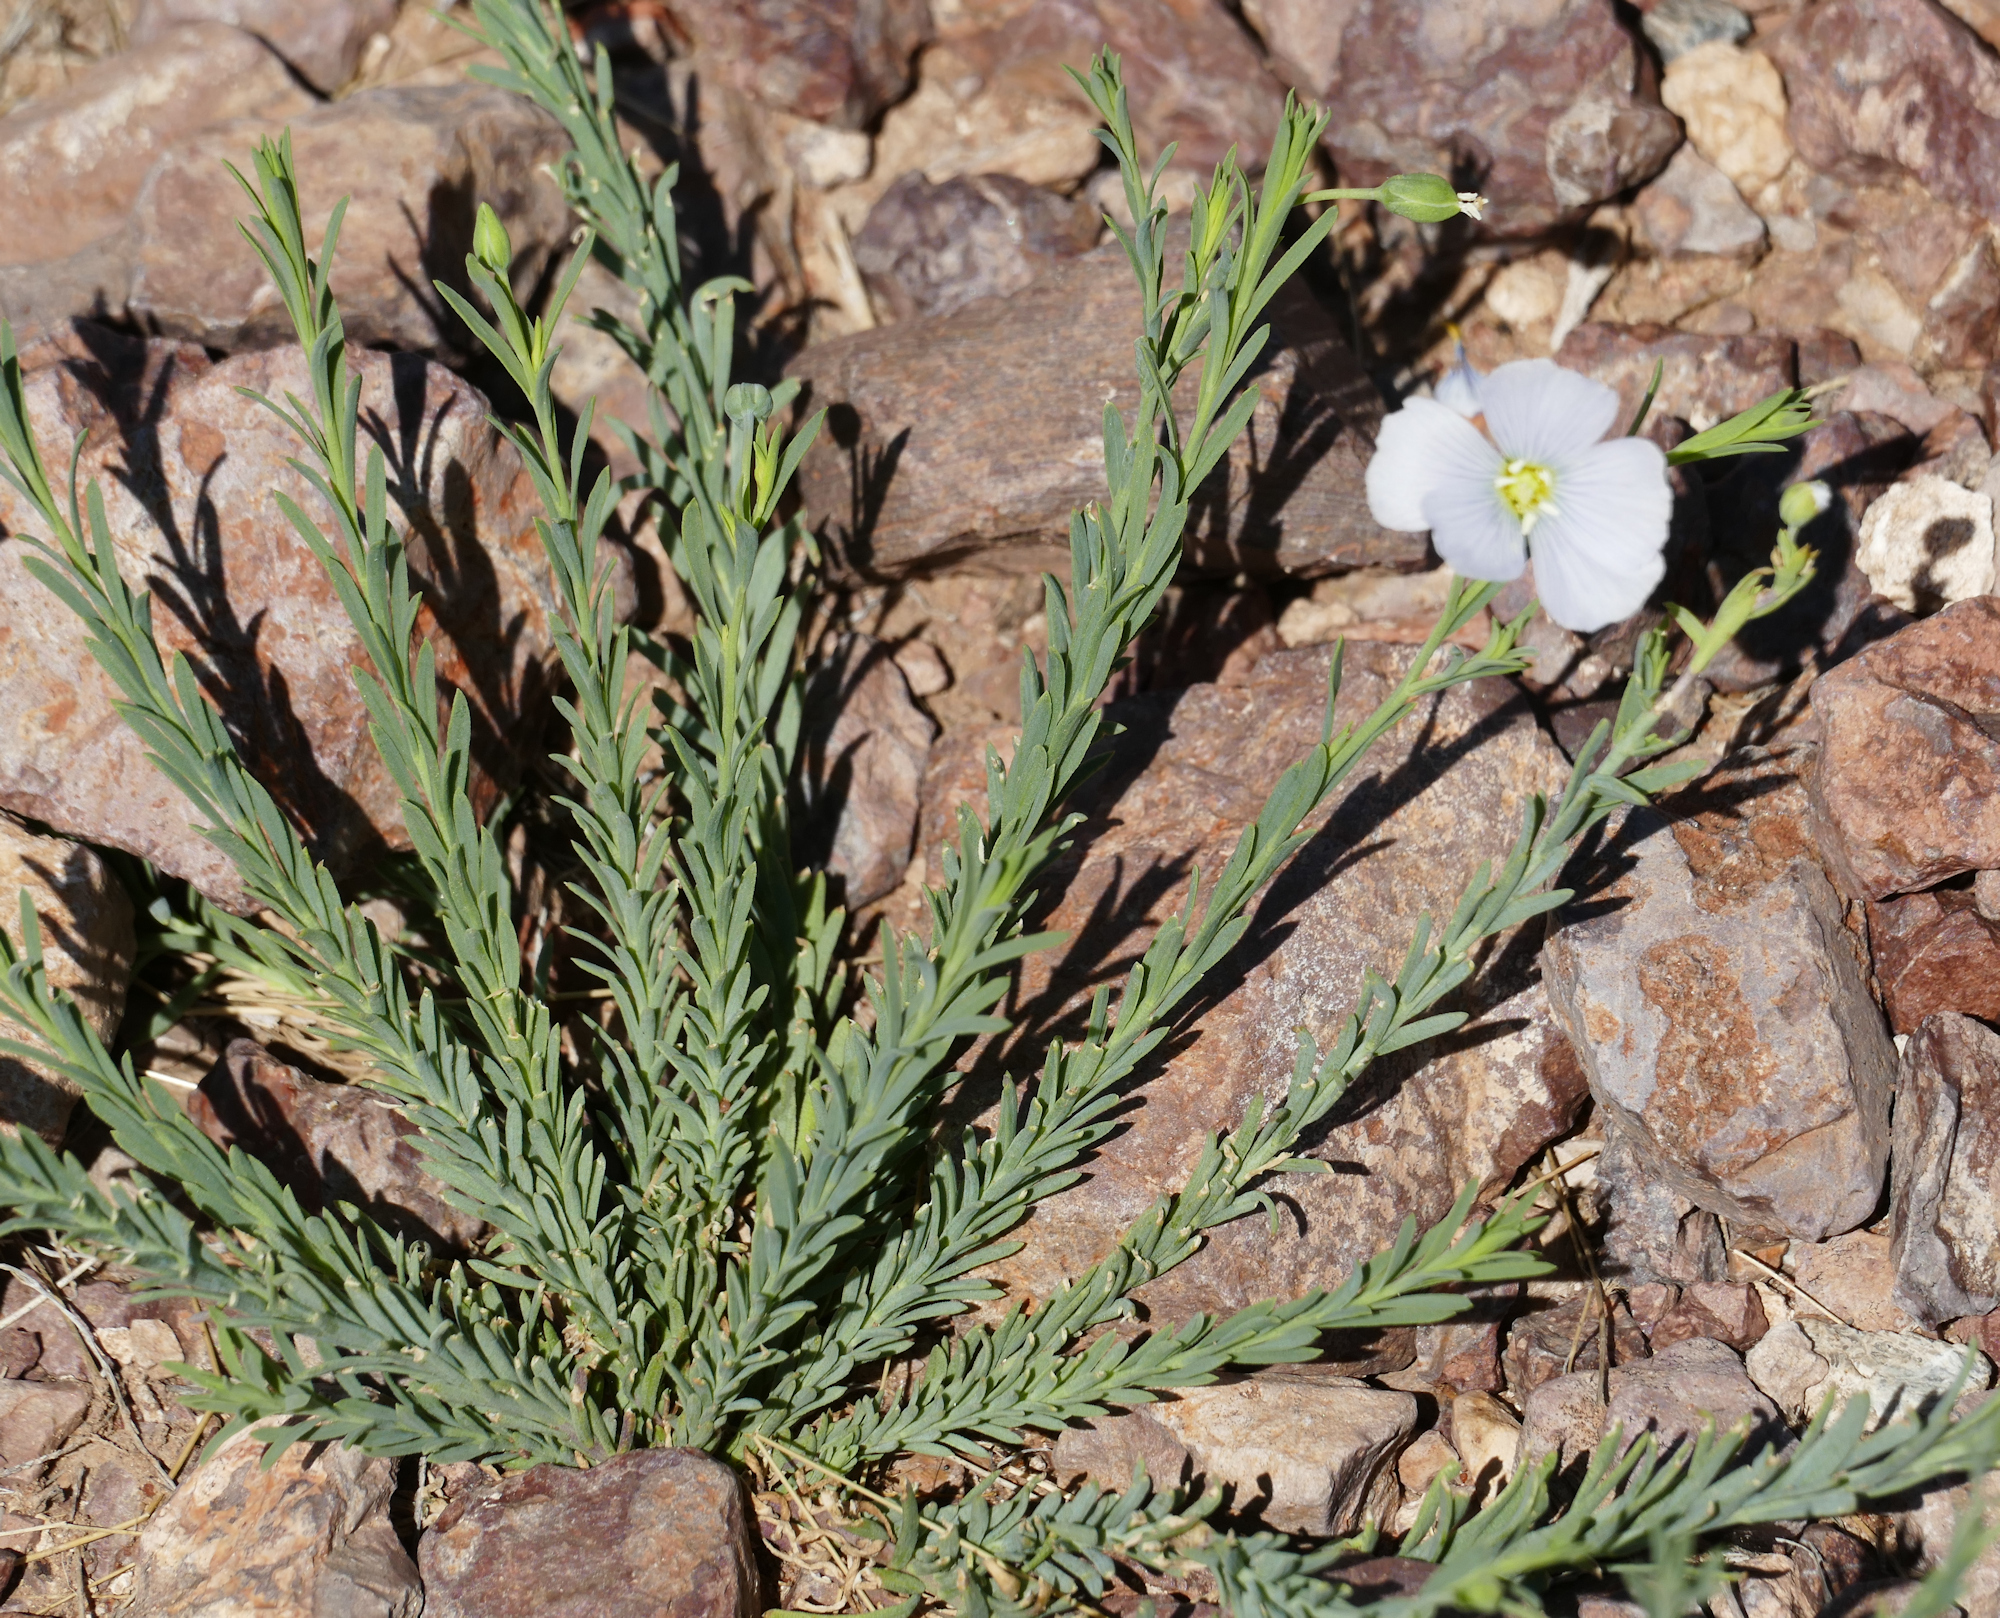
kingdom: Plantae
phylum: Tracheophyta
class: Magnoliopsida
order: Malpighiales
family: Linaceae
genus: Linum
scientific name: Linum lewisii
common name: Prairie flax
